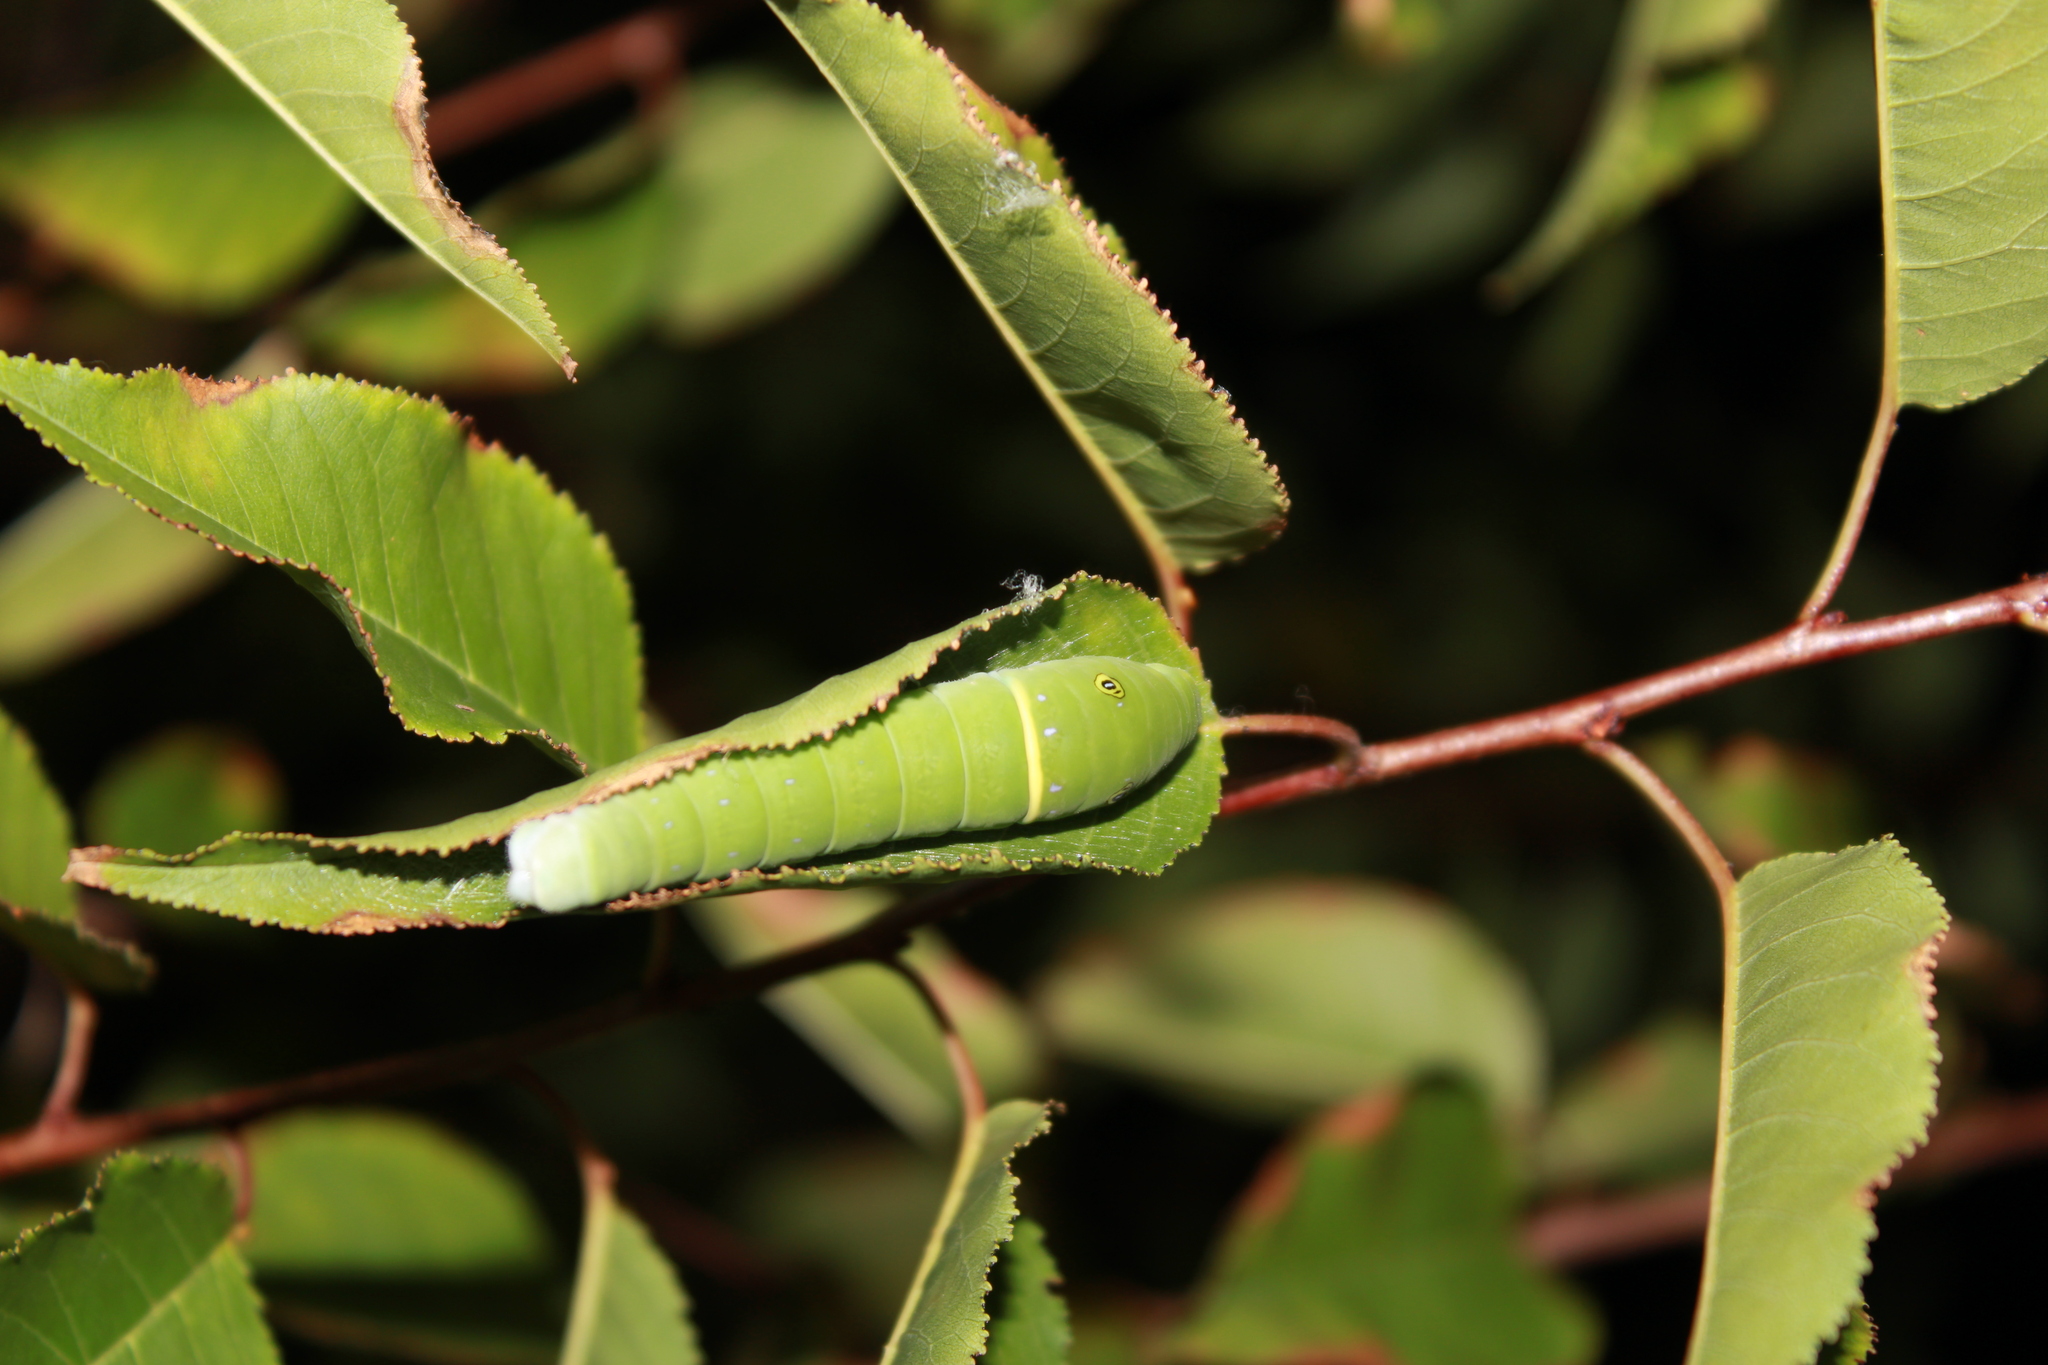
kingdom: Animalia
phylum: Arthropoda
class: Insecta
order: Lepidoptera
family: Papilionidae
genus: Papilio
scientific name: Papilio glaucus
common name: Tiger swallowtail
